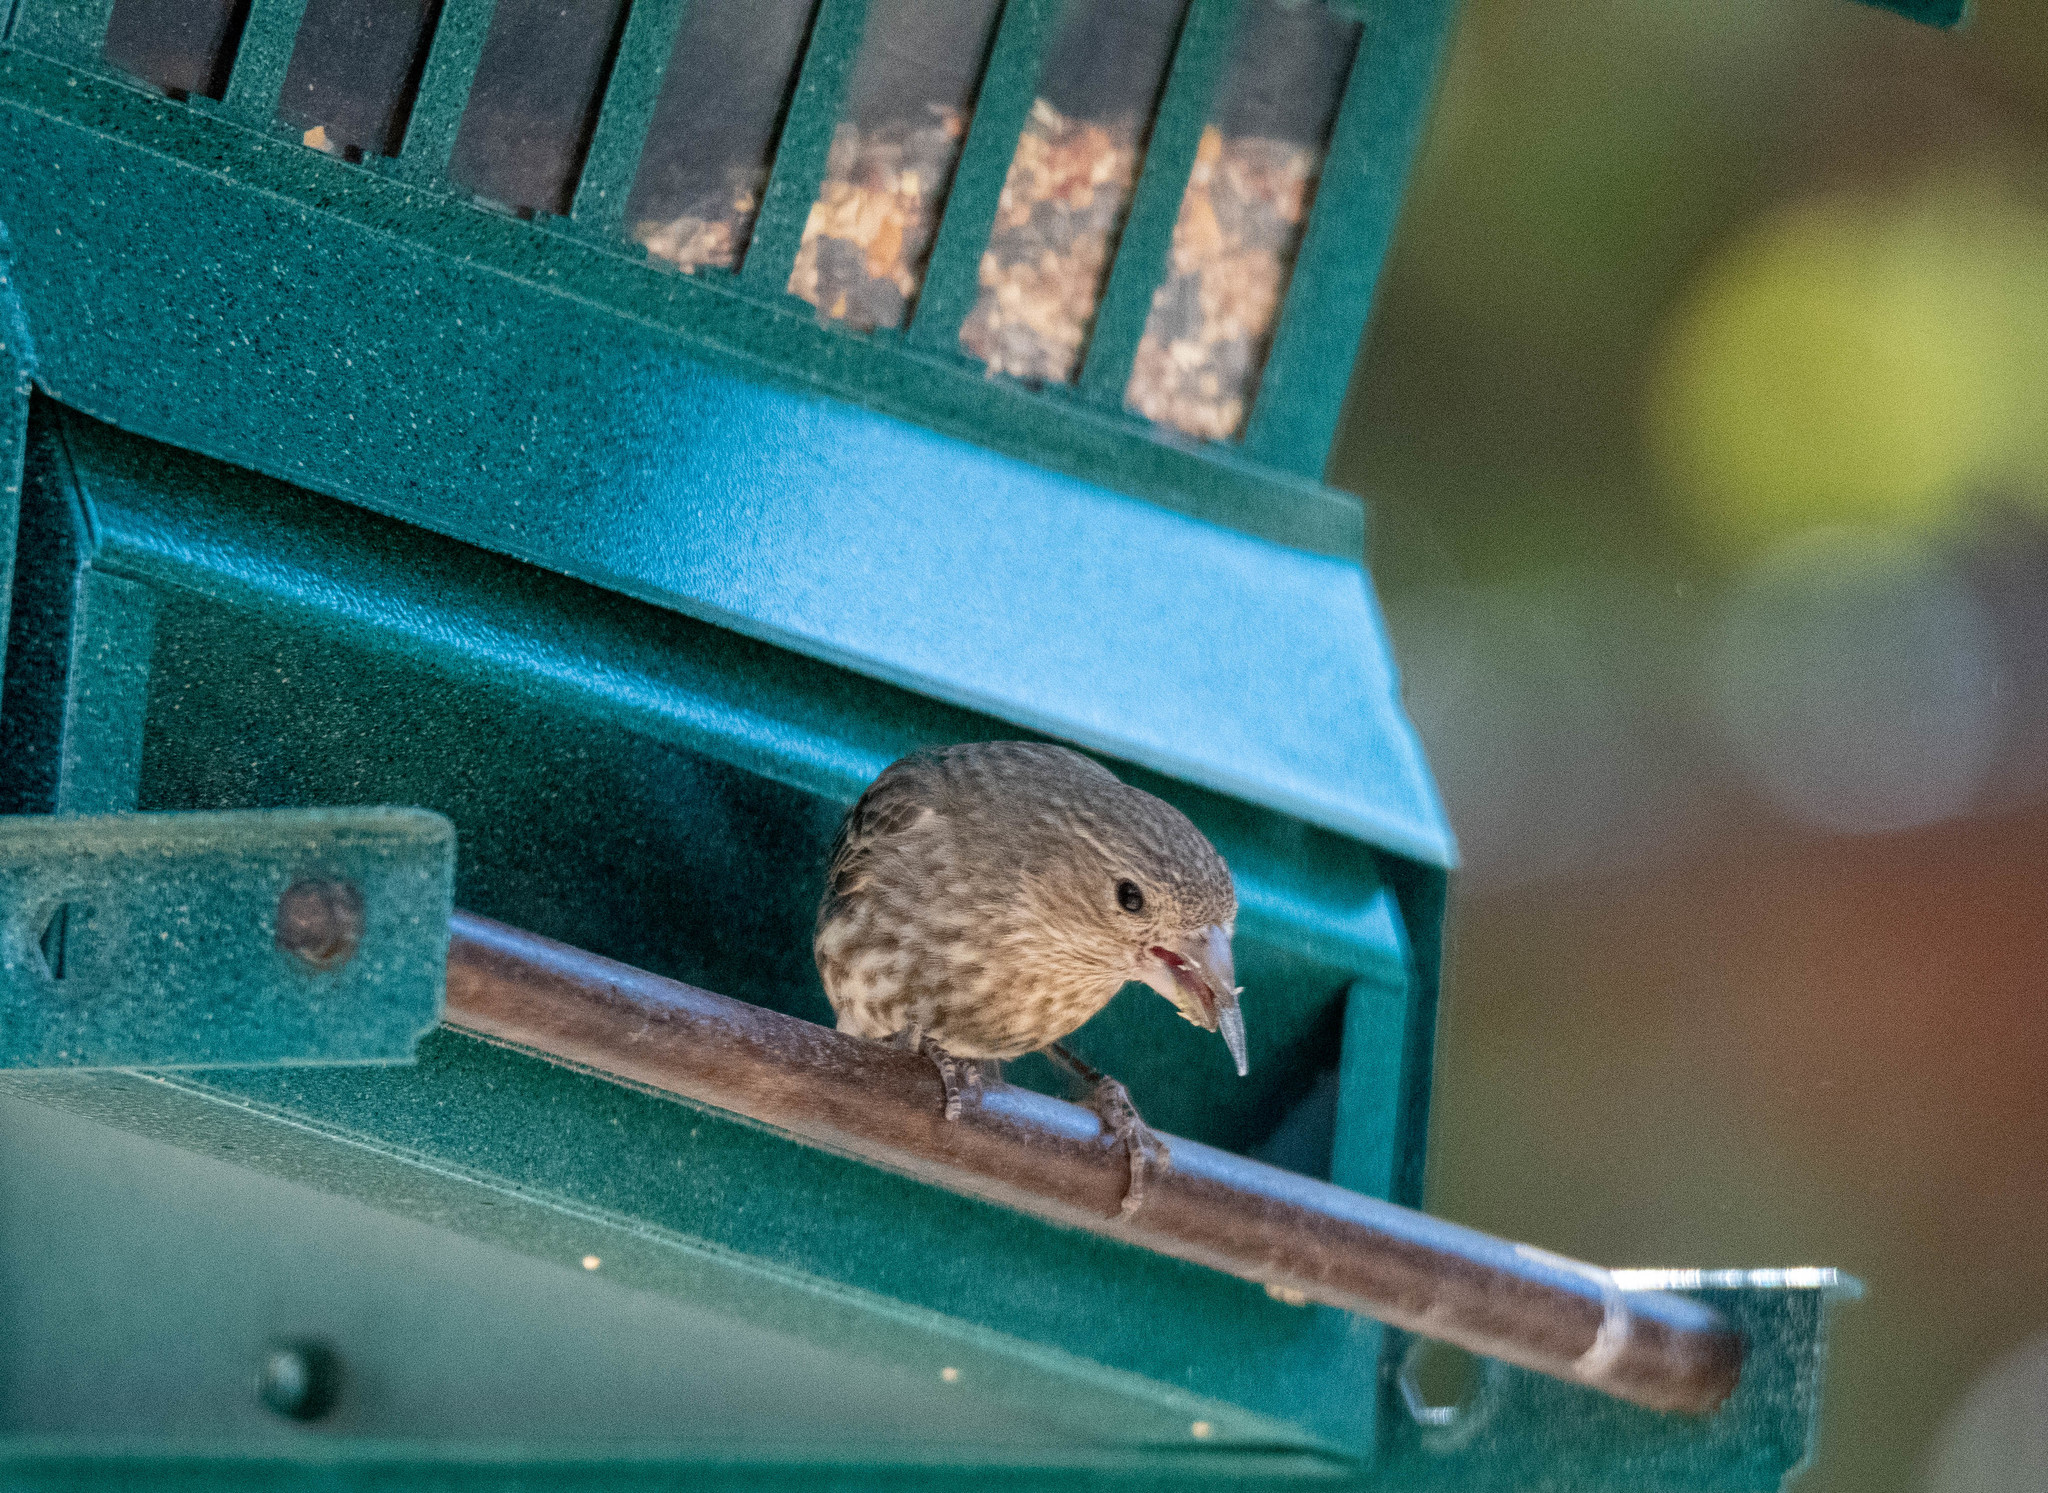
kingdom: Animalia
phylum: Chordata
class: Aves
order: Passeriformes
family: Fringillidae
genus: Haemorhous
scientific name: Haemorhous mexicanus
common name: House finch
